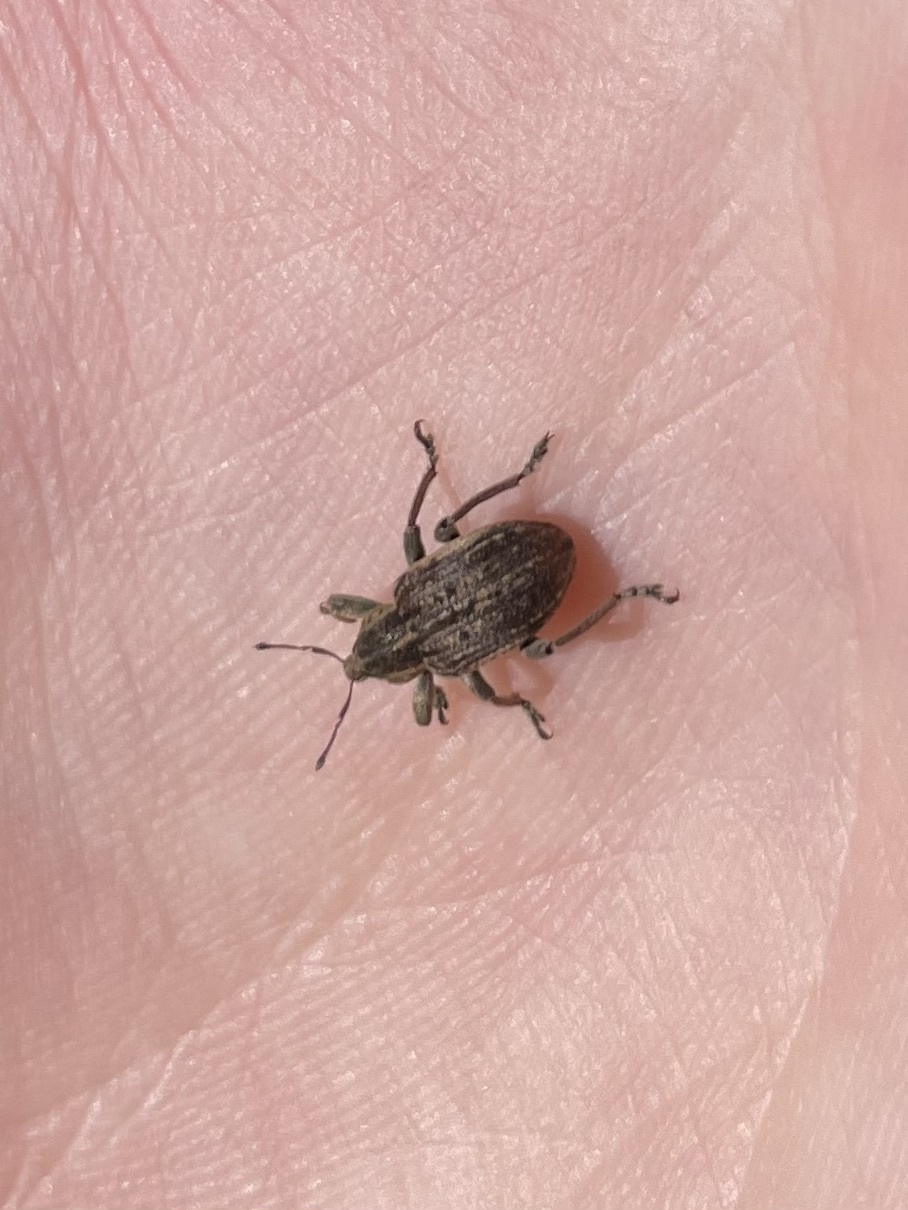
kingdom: Animalia
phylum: Arthropoda
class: Insecta
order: Coleoptera
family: Curculionidae
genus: Brachypera
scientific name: Brachypera zoilus
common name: Clover leaf weevil
